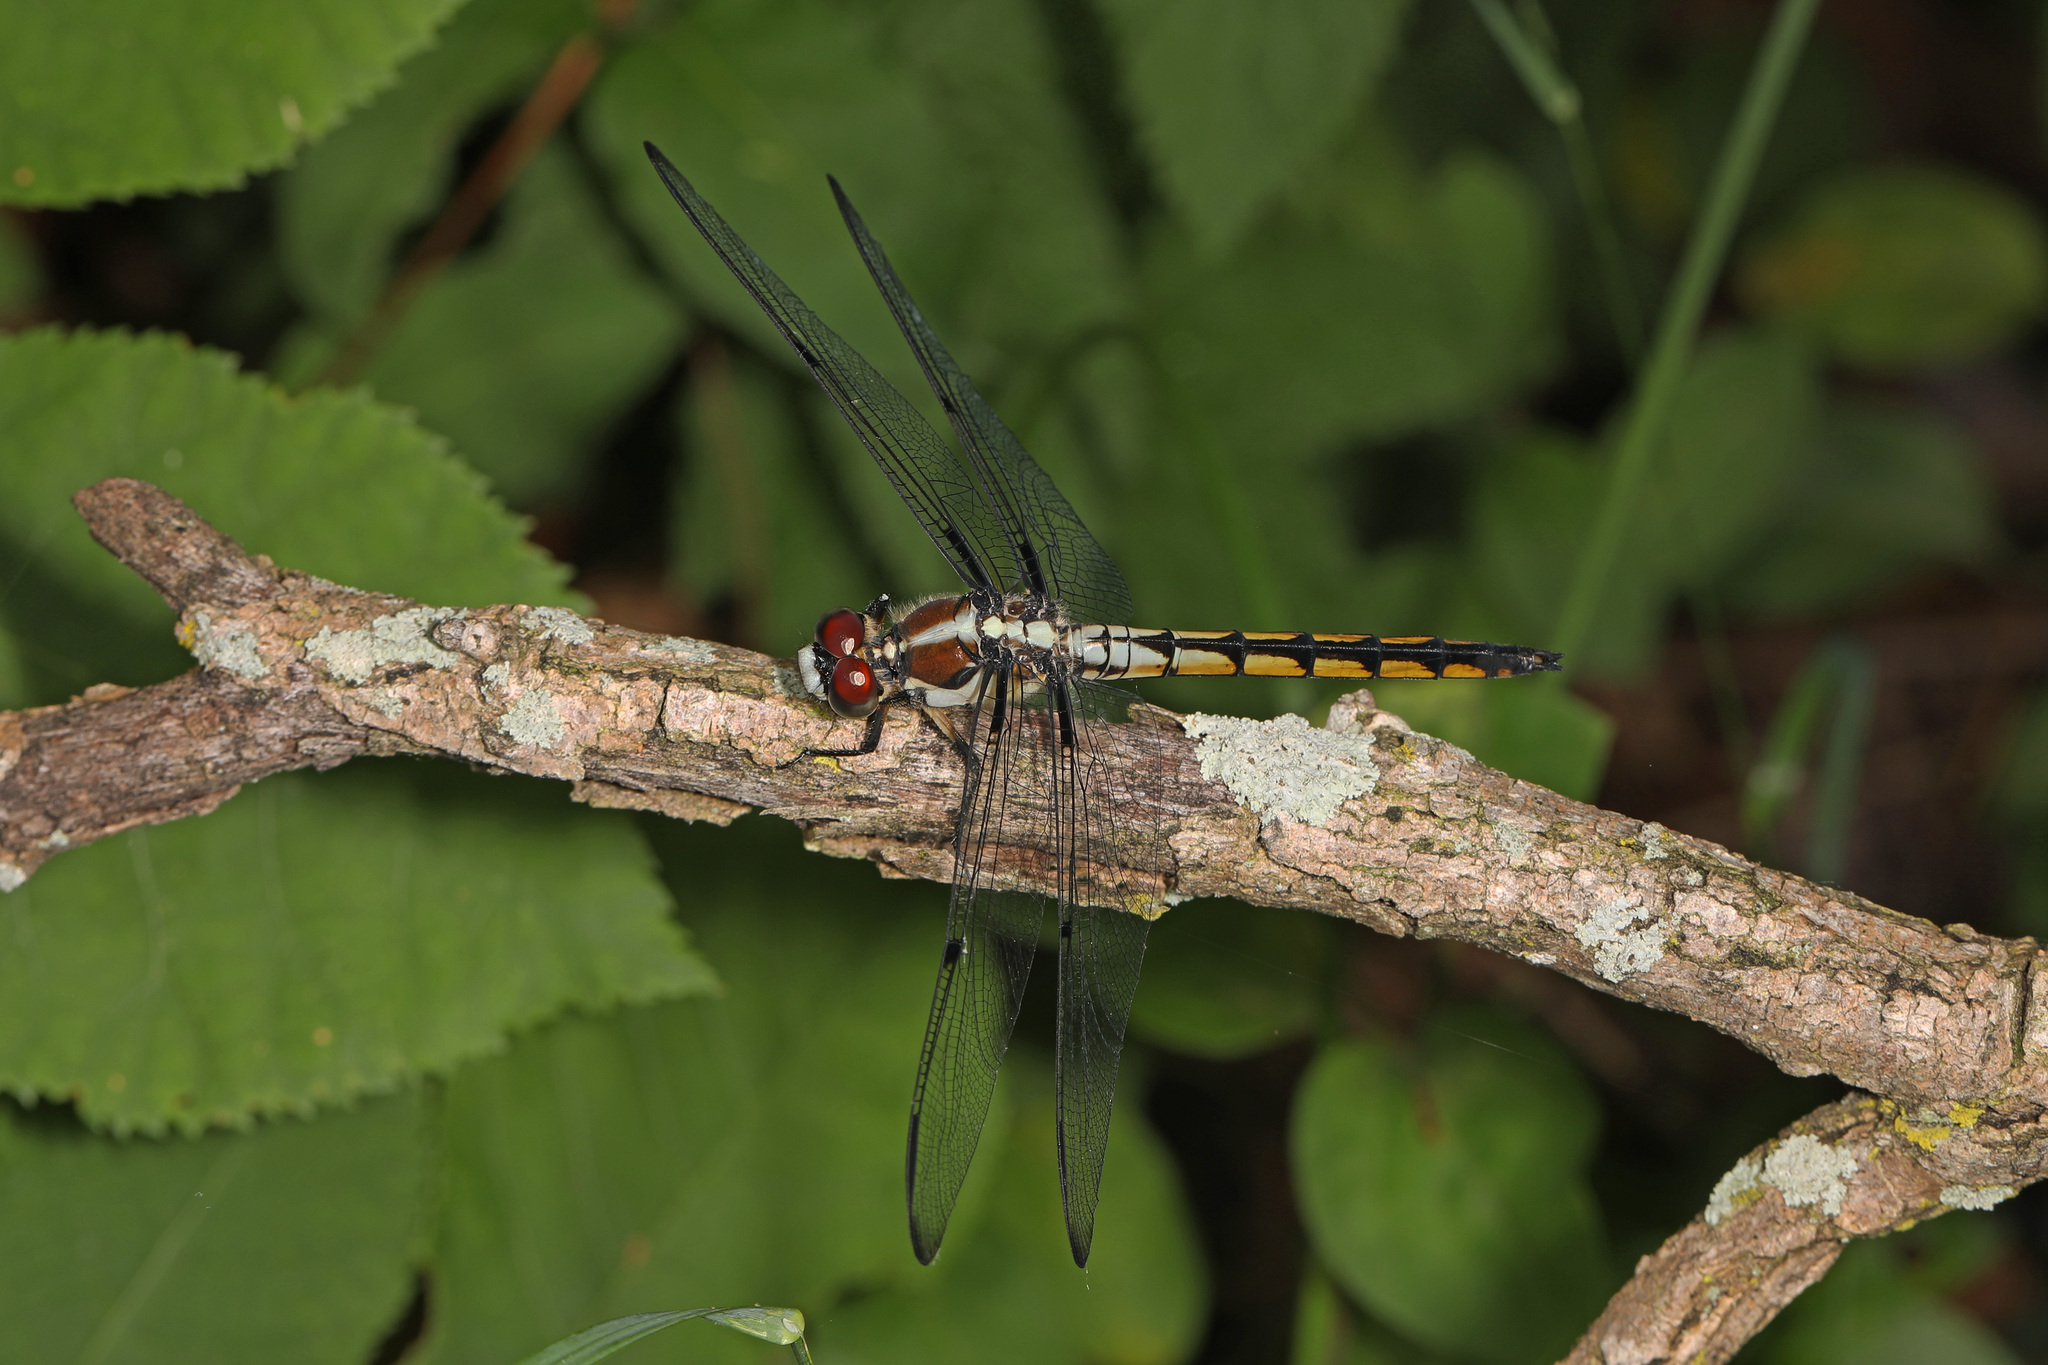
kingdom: Animalia
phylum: Arthropoda
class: Insecta
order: Odonata
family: Libellulidae
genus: Libellula
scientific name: Libellula vibrans
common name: Great blue skimmer
